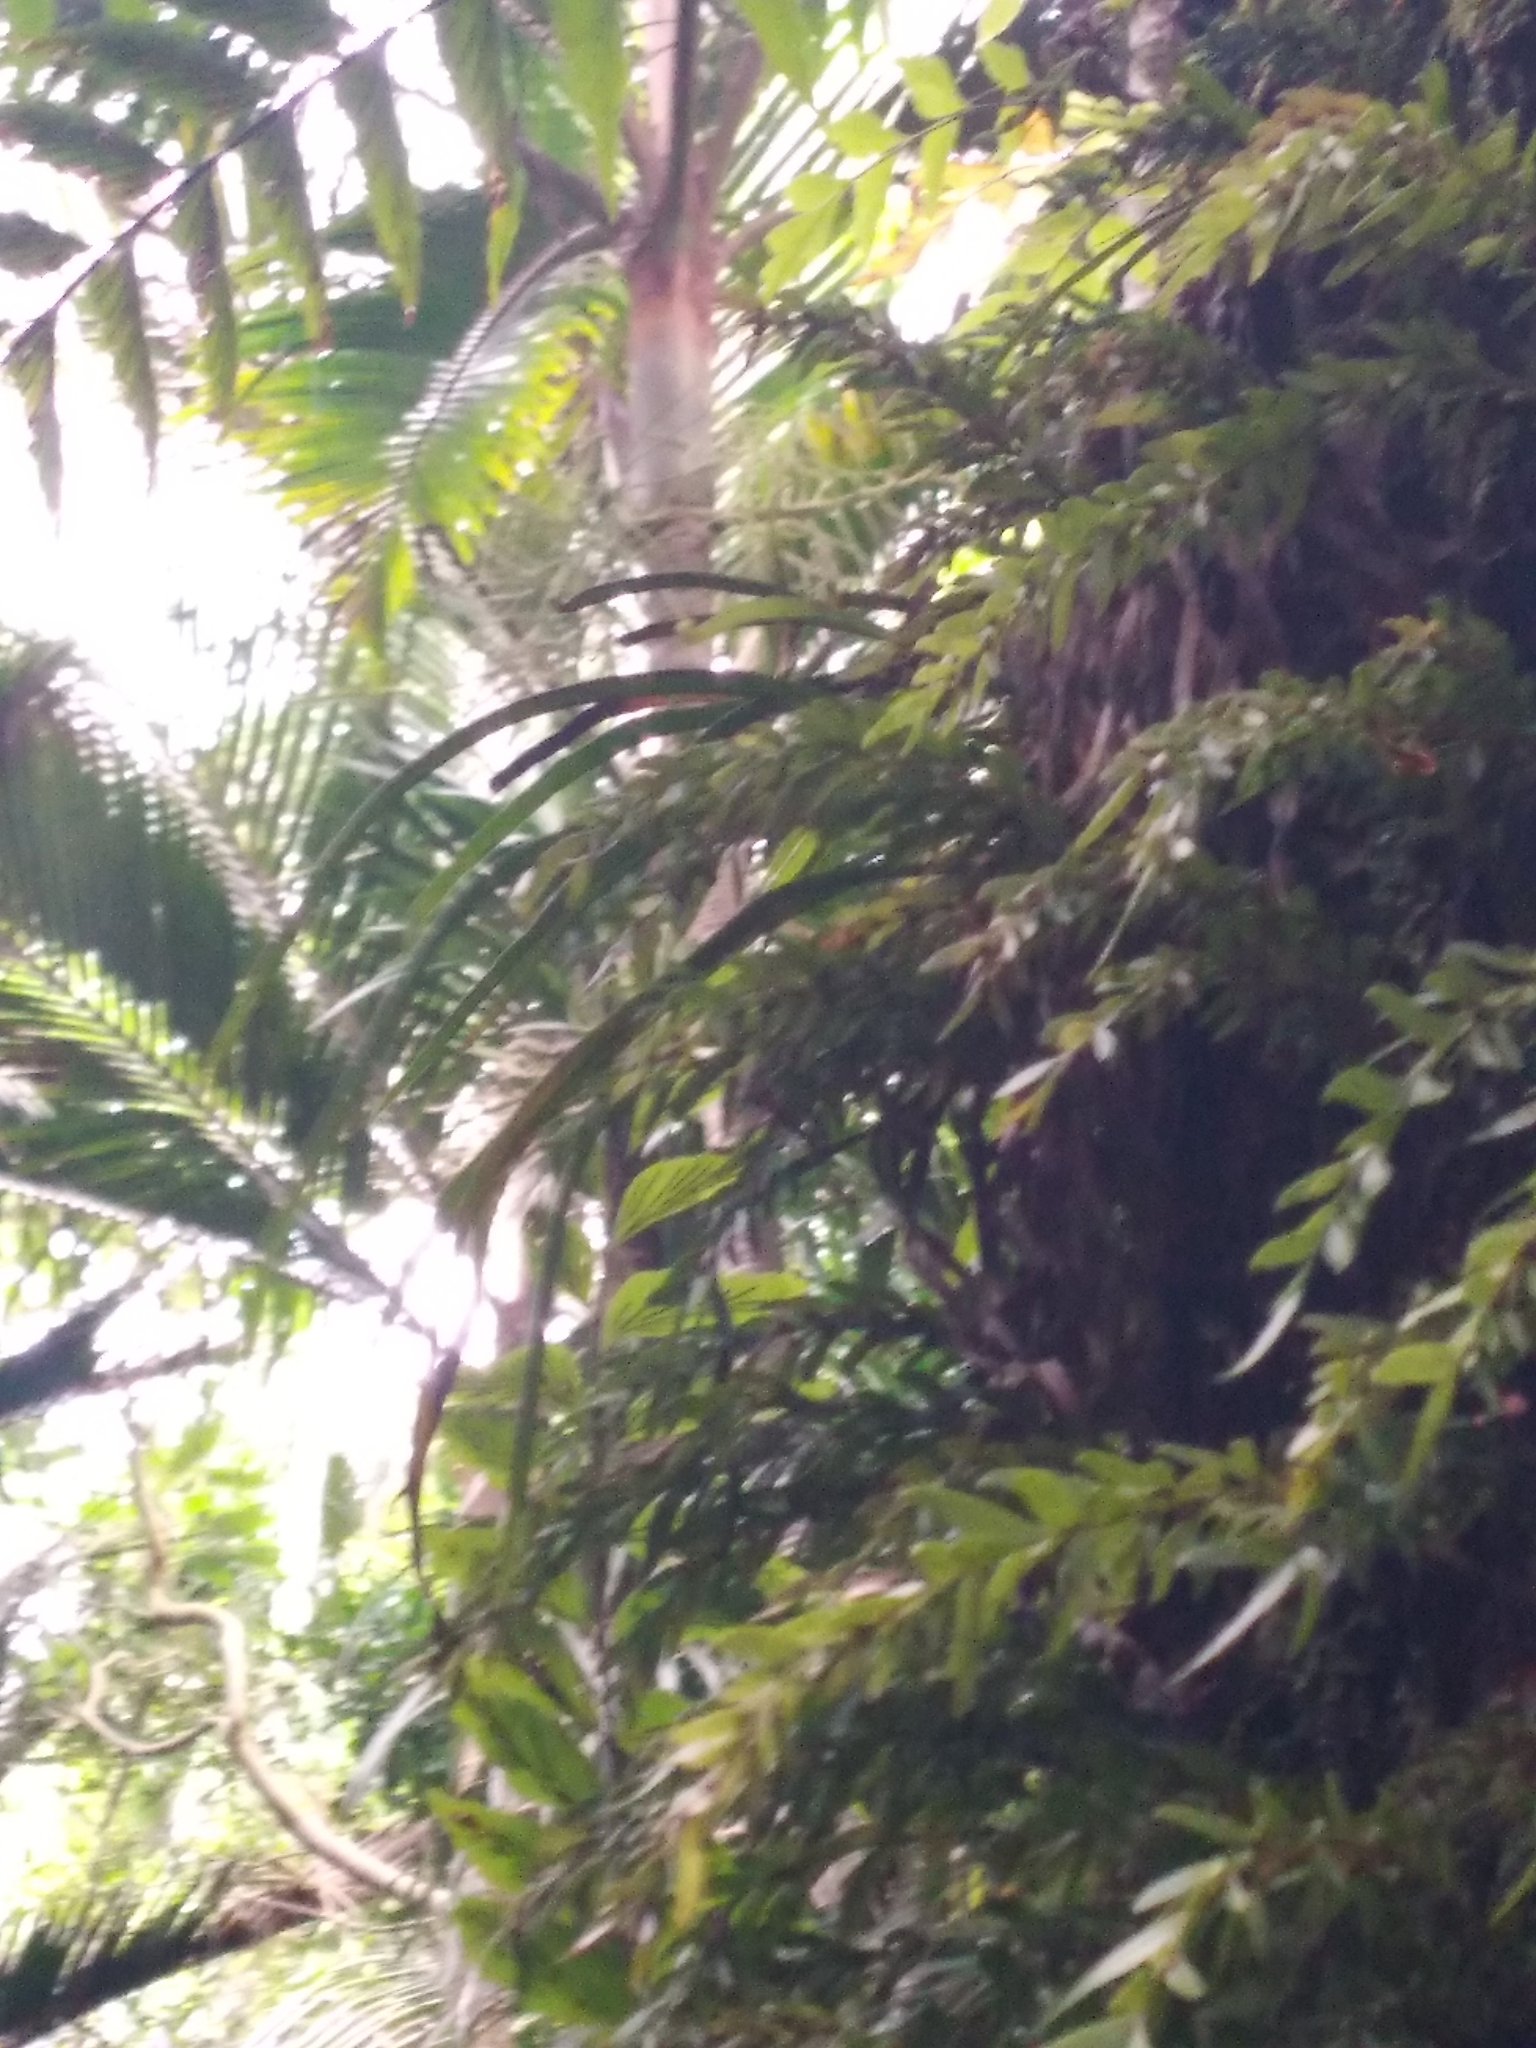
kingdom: Plantae
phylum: Tracheophyta
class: Polypodiopsida
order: Polypodiales
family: Pteridaceae
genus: Haplopteris
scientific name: Haplopteris elongata
